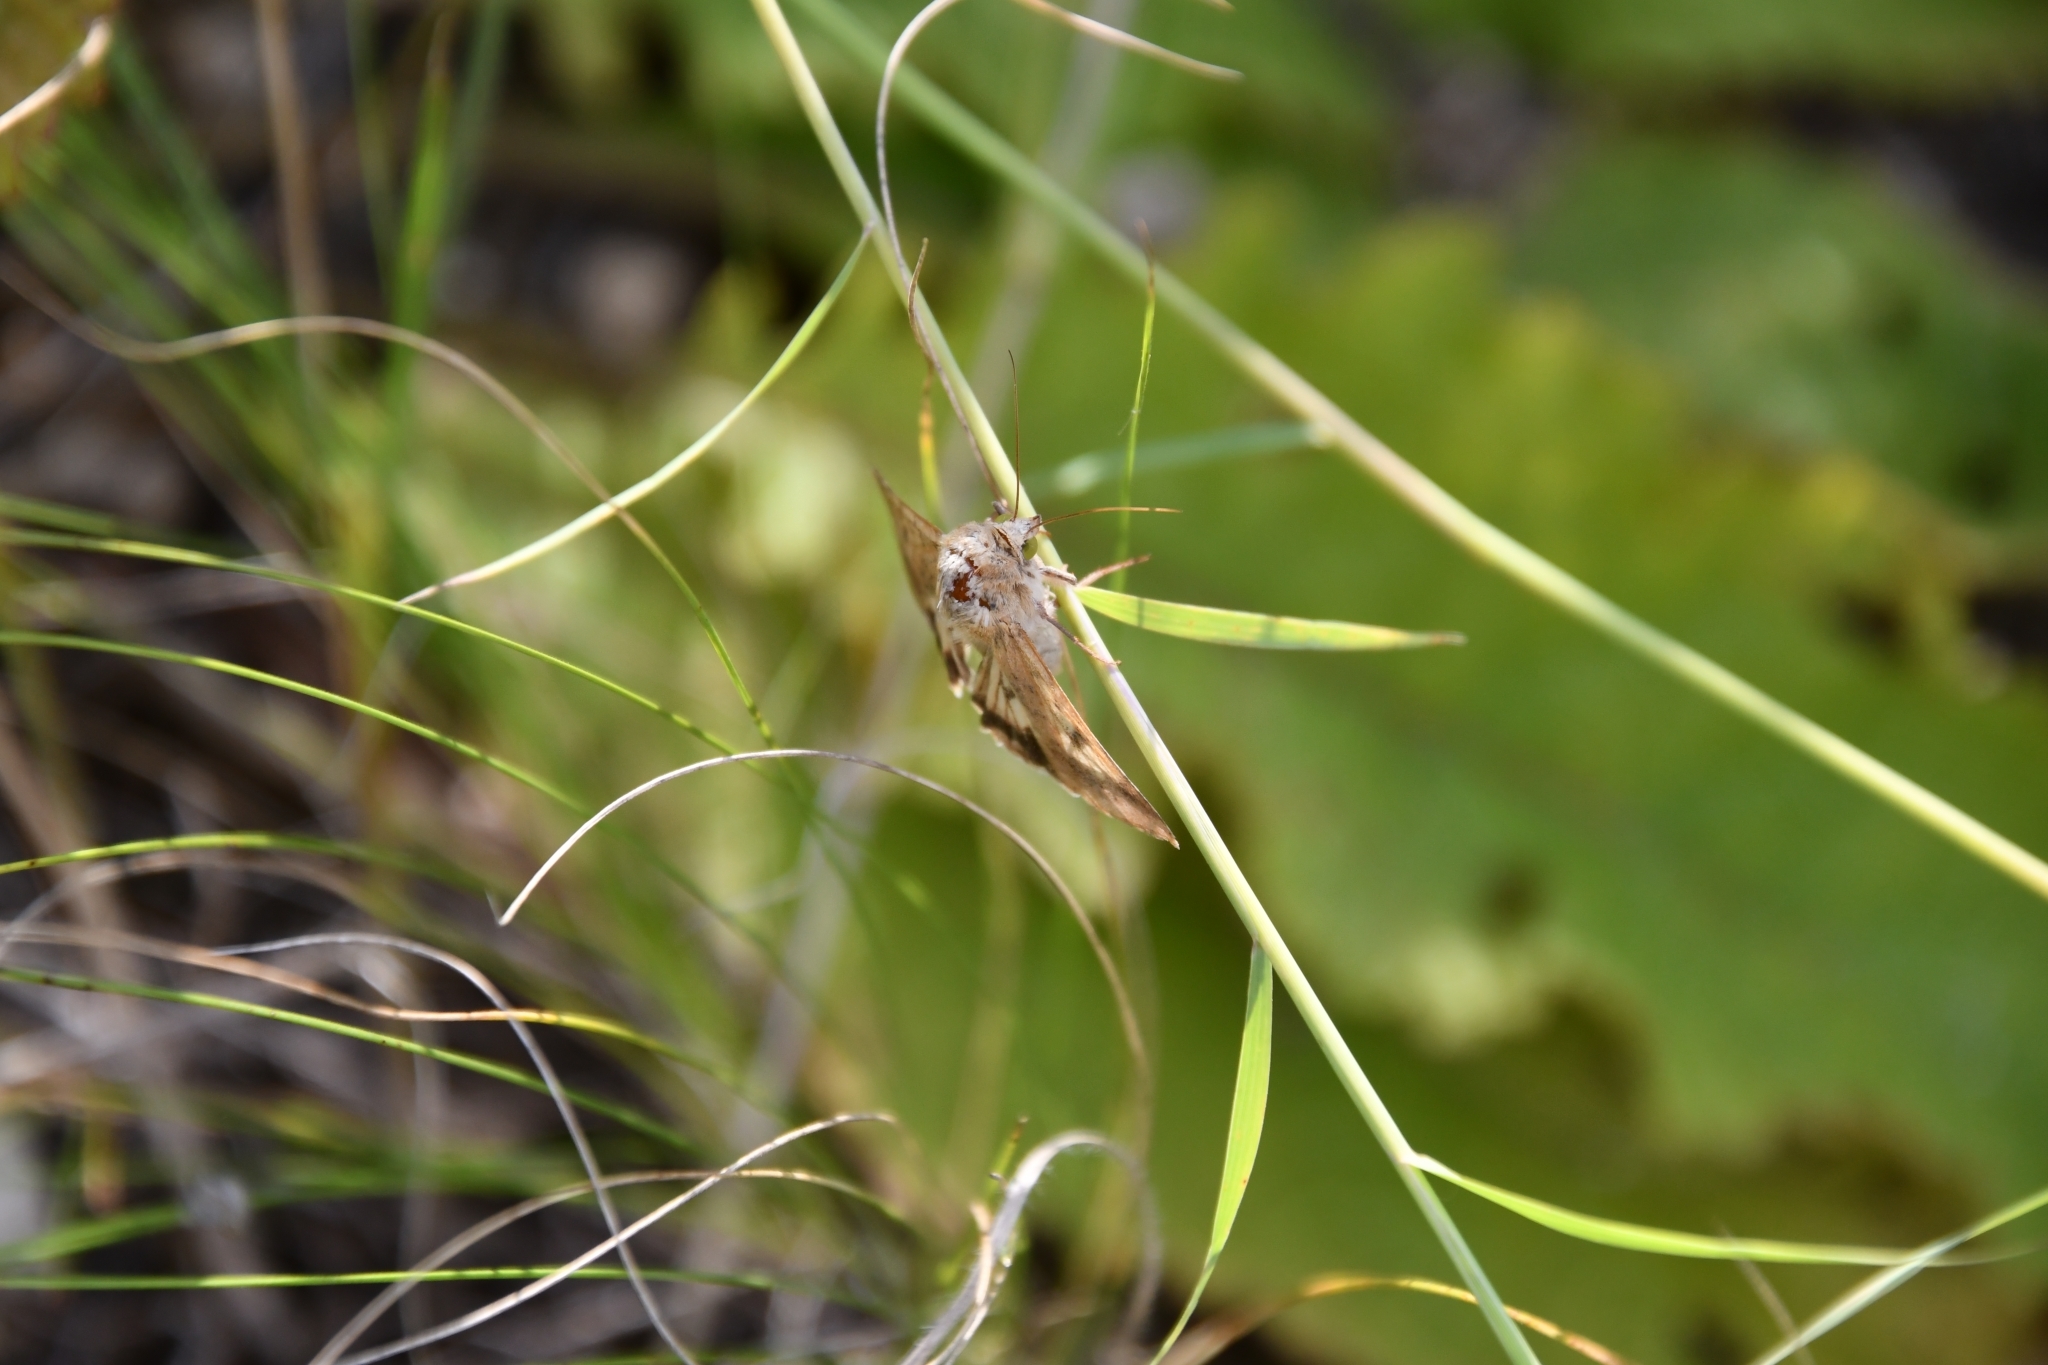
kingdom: Animalia
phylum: Arthropoda
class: Insecta
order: Lepidoptera
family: Noctuidae
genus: Helicoverpa
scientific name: Helicoverpa armigera
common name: Cotton bollworm
